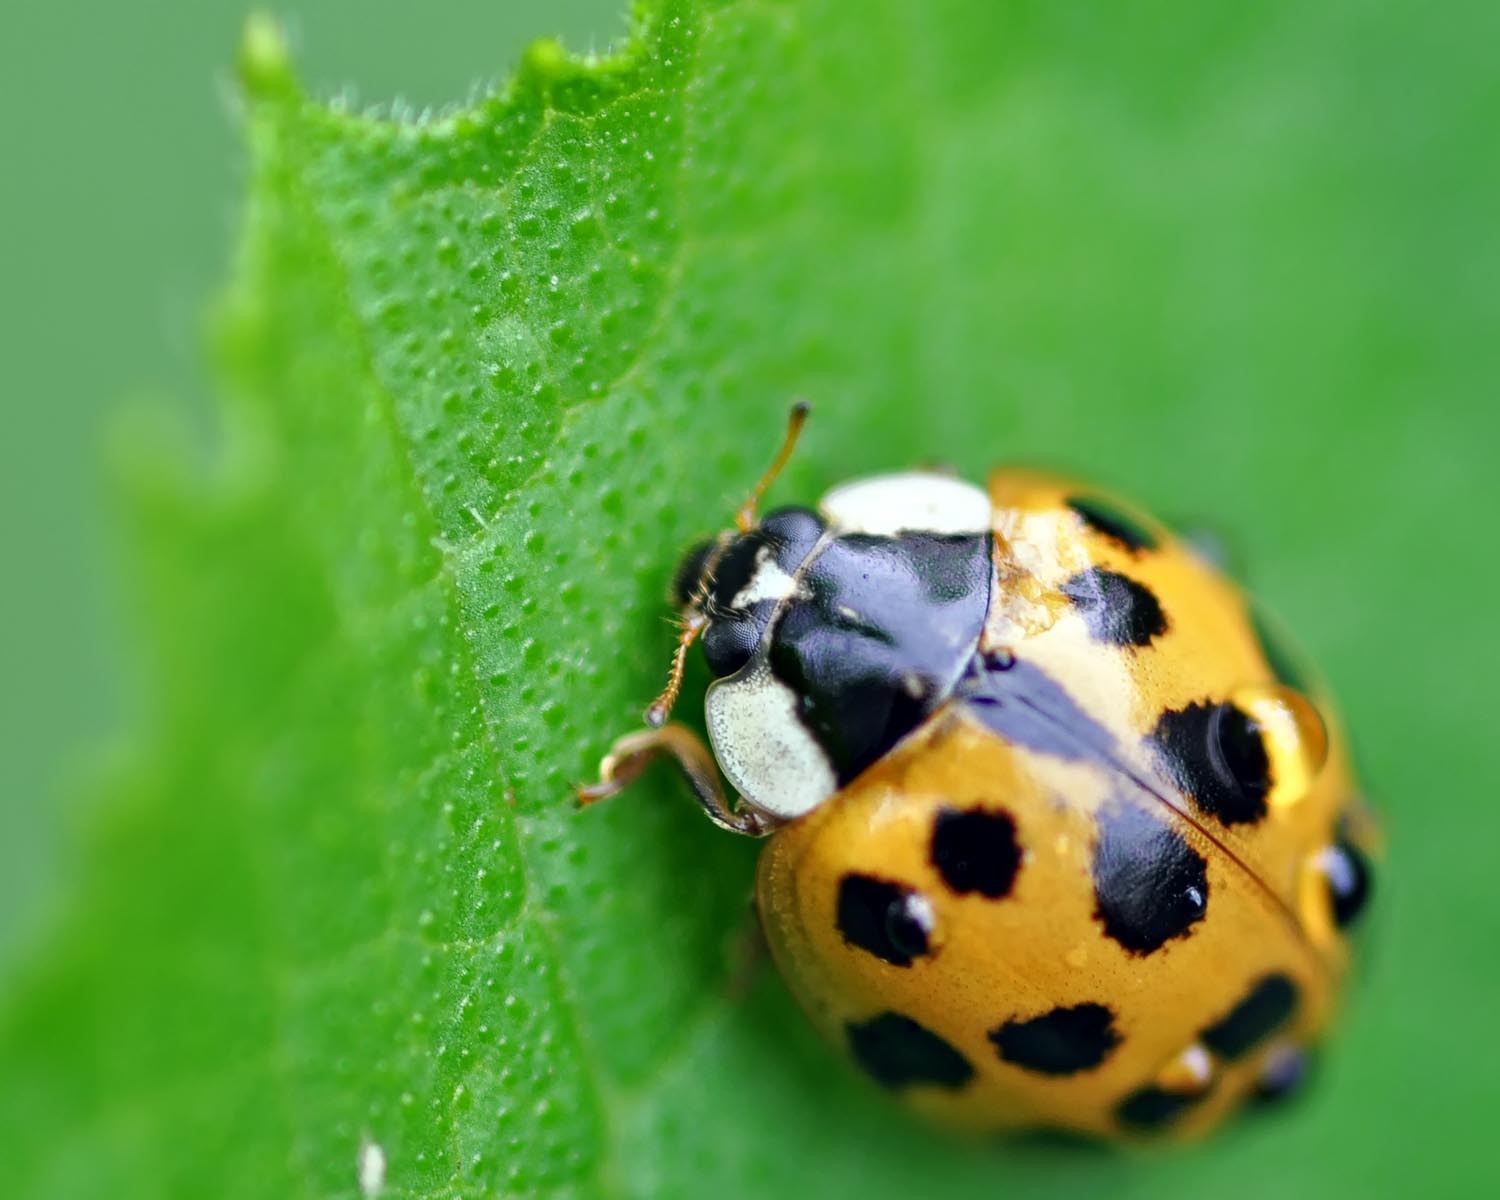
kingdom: Animalia
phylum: Arthropoda
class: Insecta
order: Coleoptera
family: Coccinellidae
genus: Harmonia
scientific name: Harmonia axyridis
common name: Harlequin ladybird
